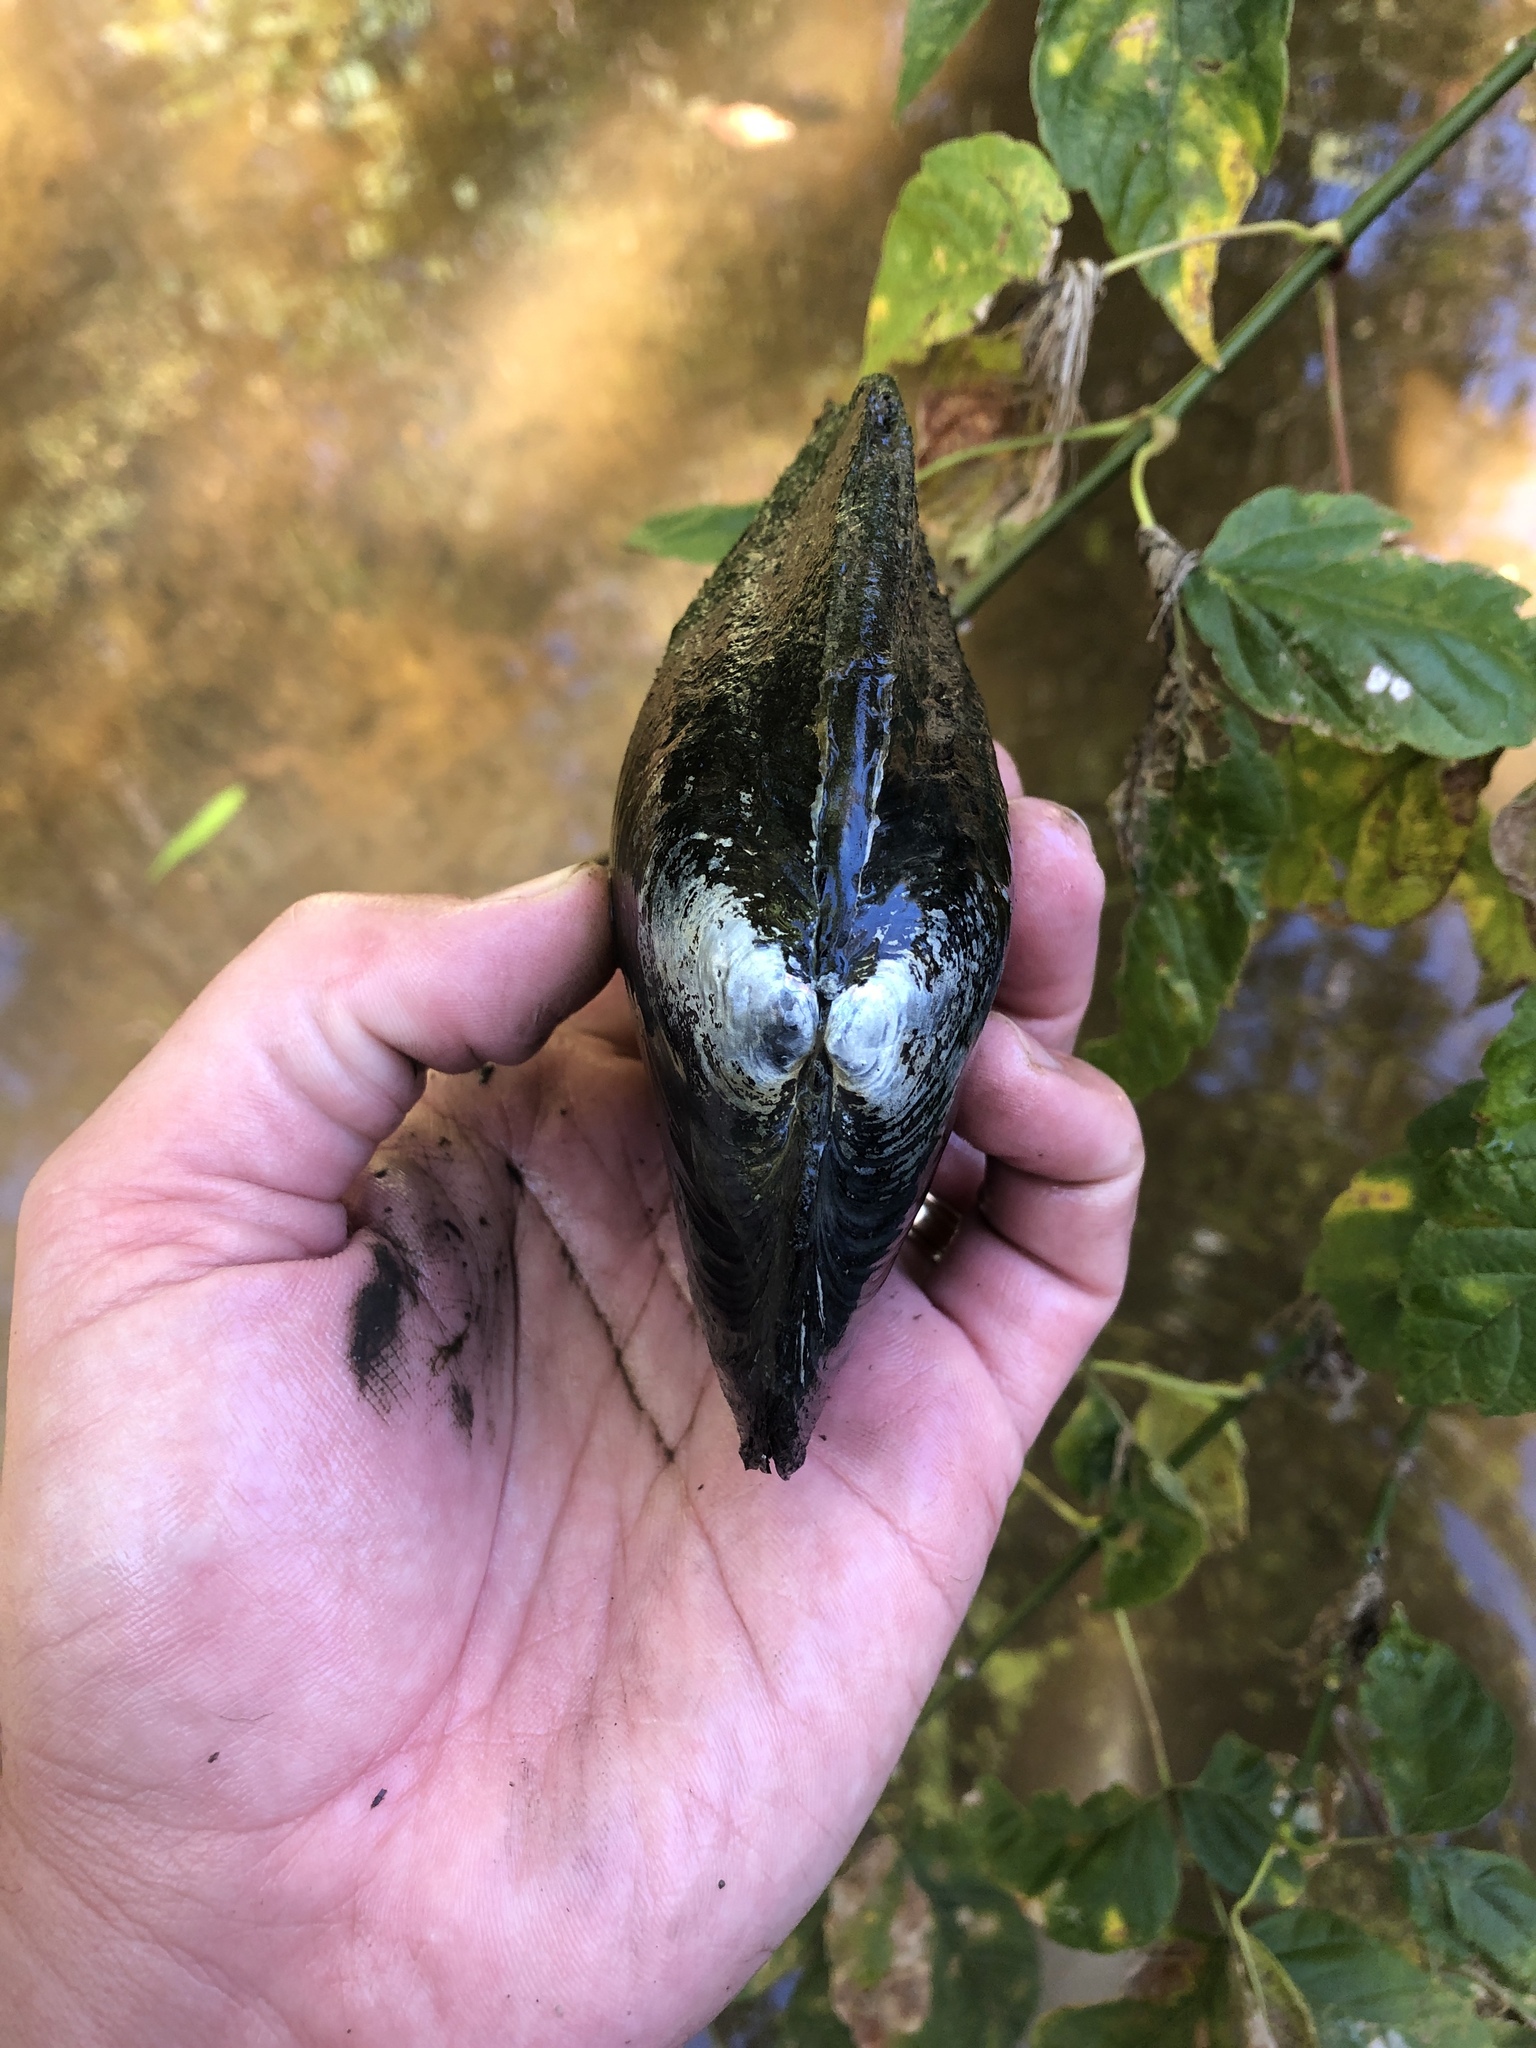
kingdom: Animalia
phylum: Mollusca
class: Bivalvia
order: Unionida
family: Unionidae
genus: Potamilus
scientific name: Potamilus alatus
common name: Pink heelsplitter
